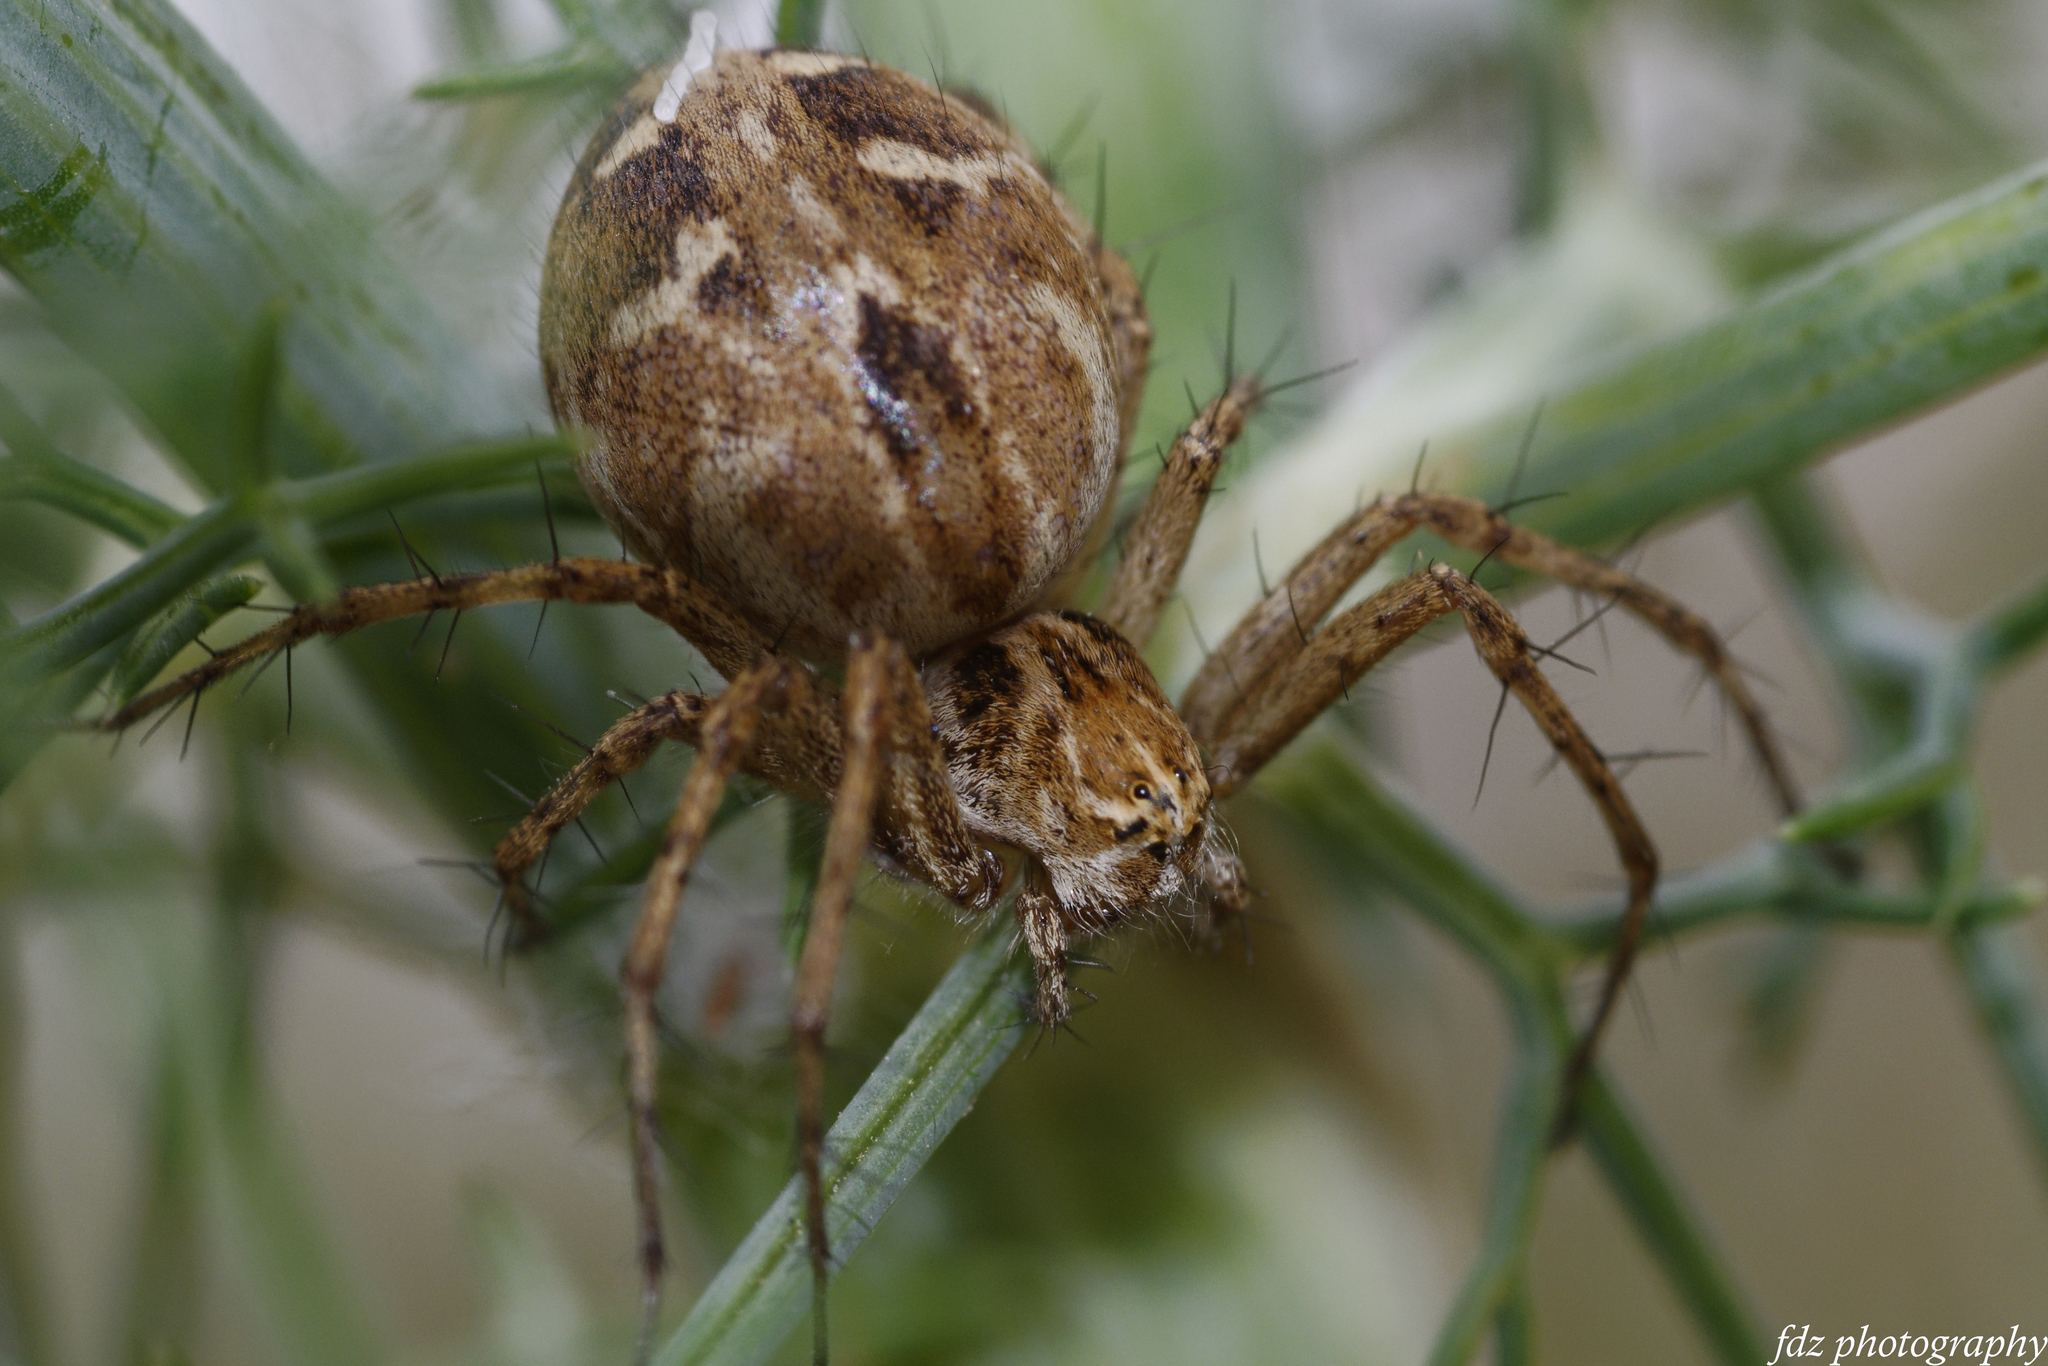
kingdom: Animalia
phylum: Arthropoda
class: Arachnida
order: Araneae
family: Oxyopidae
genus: Oxyopes
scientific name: Oxyopes heterophthalmus
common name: Lynx spider
